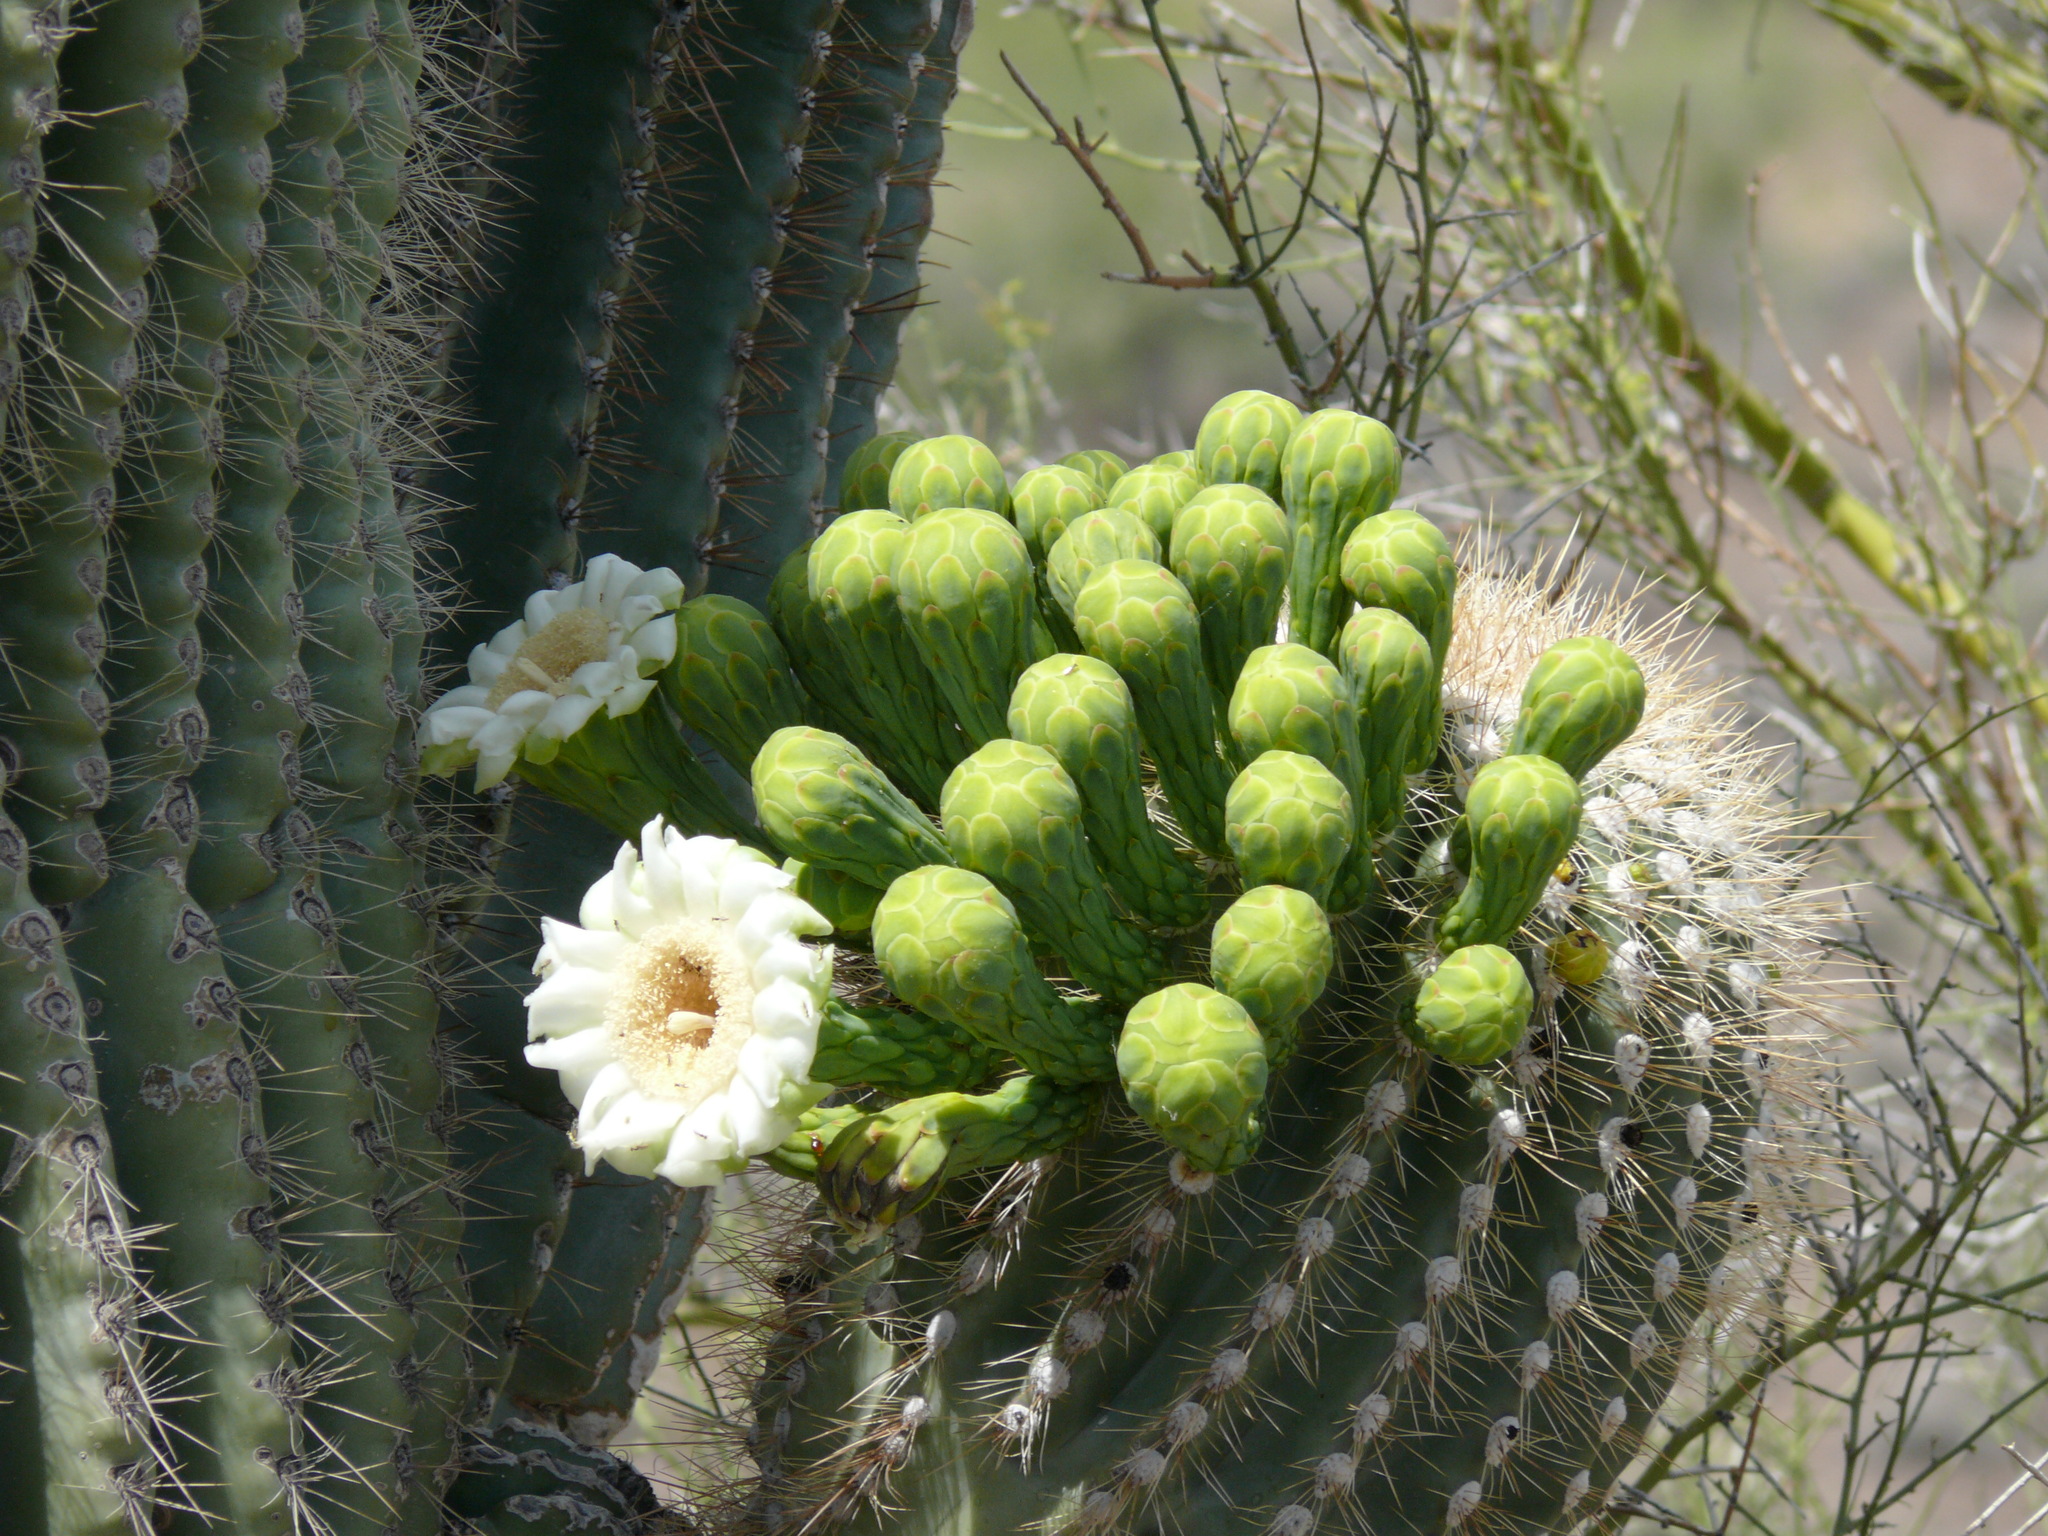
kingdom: Plantae
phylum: Tracheophyta
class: Magnoliopsida
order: Caryophyllales
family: Cactaceae
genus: Carnegiea
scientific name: Carnegiea gigantea
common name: Saguaro
